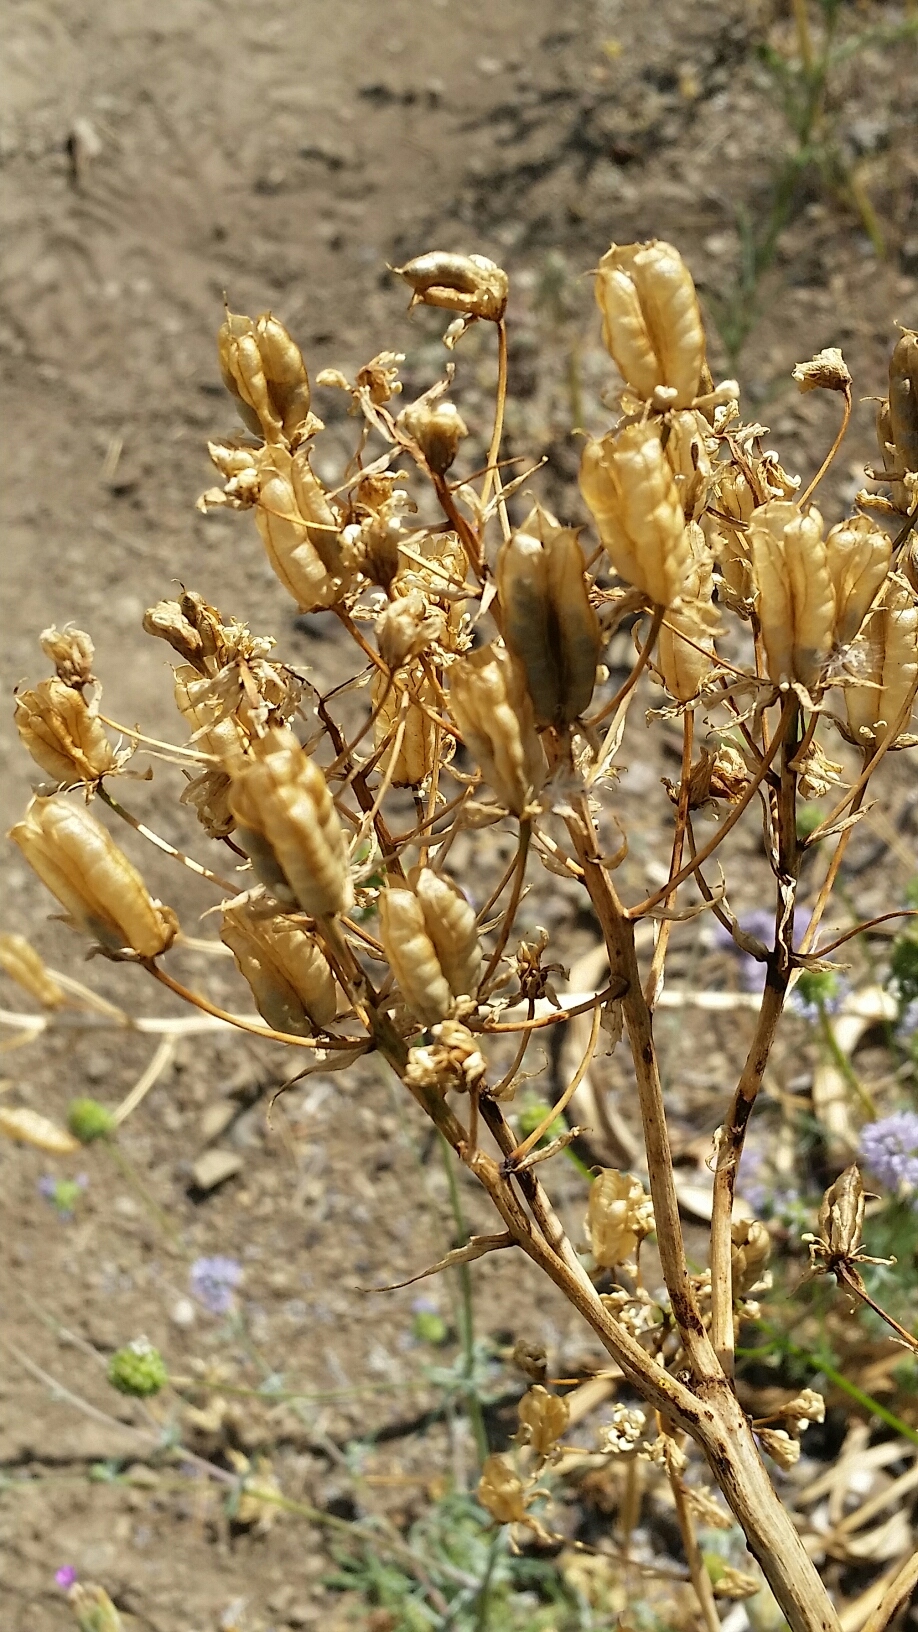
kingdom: Plantae
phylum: Tracheophyta
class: Liliopsida
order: Liliales
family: Melanthiaceae
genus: Toxicoscordion
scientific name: Toxicoscordion fremontii
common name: Fremont's death camas
